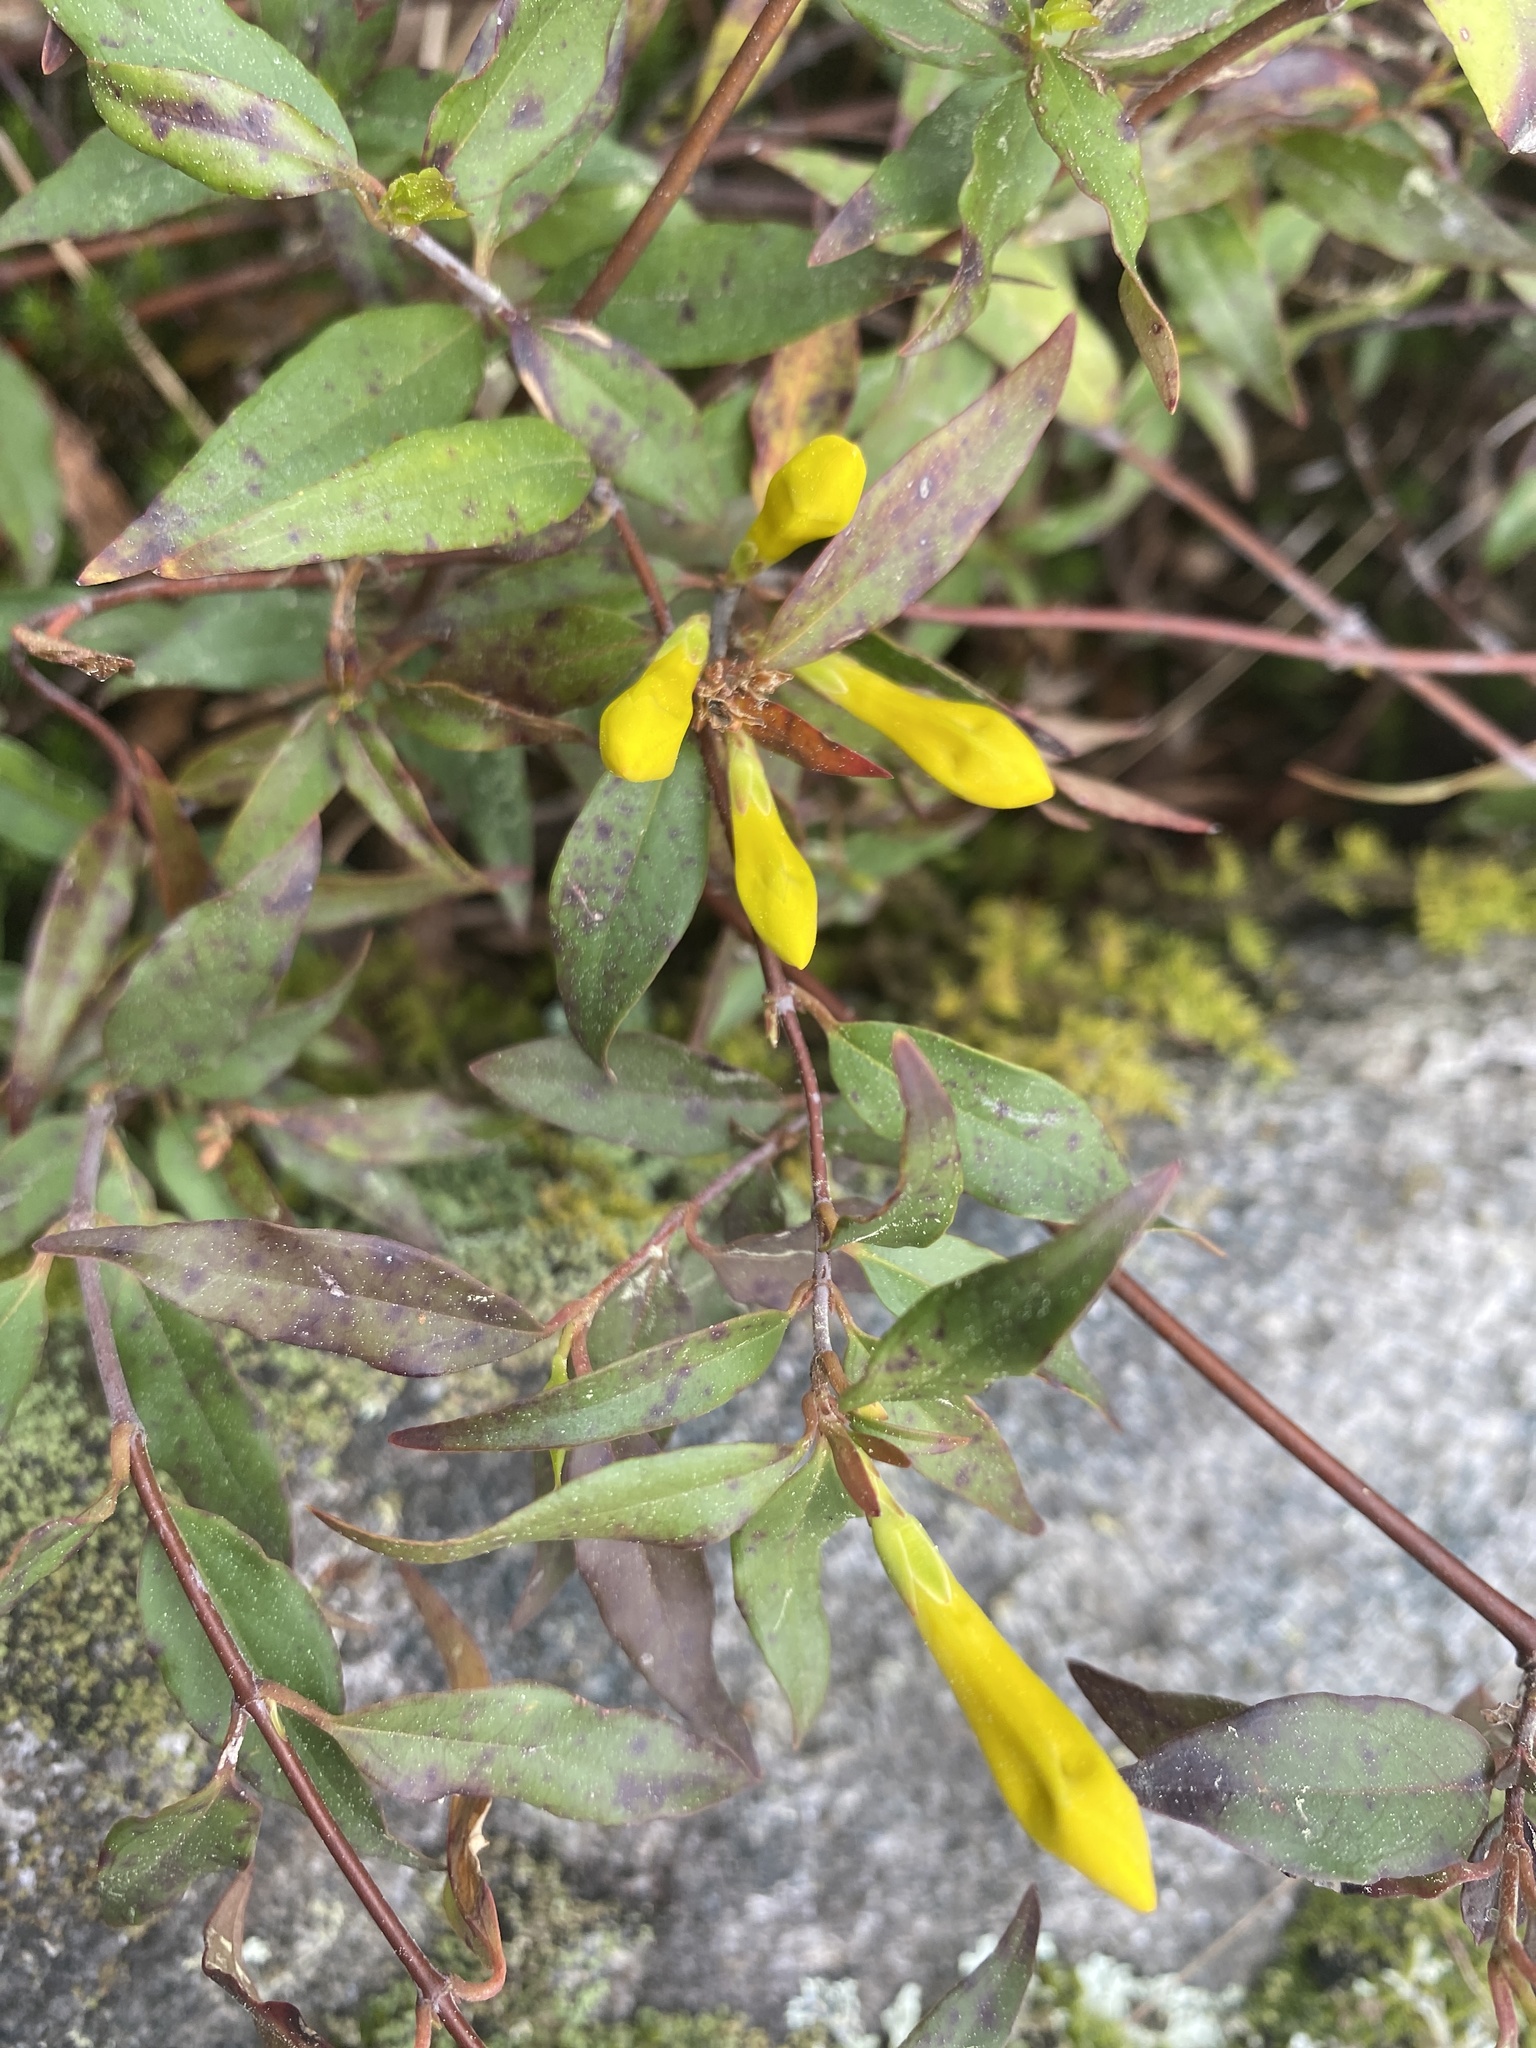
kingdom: Plantae
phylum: Tracheophyta
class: Magnoliopsida
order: Gentianales
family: Gelsemiaceae
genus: Gelsemium
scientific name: Gelsemium sempervirens
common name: Carolina-jasmine
